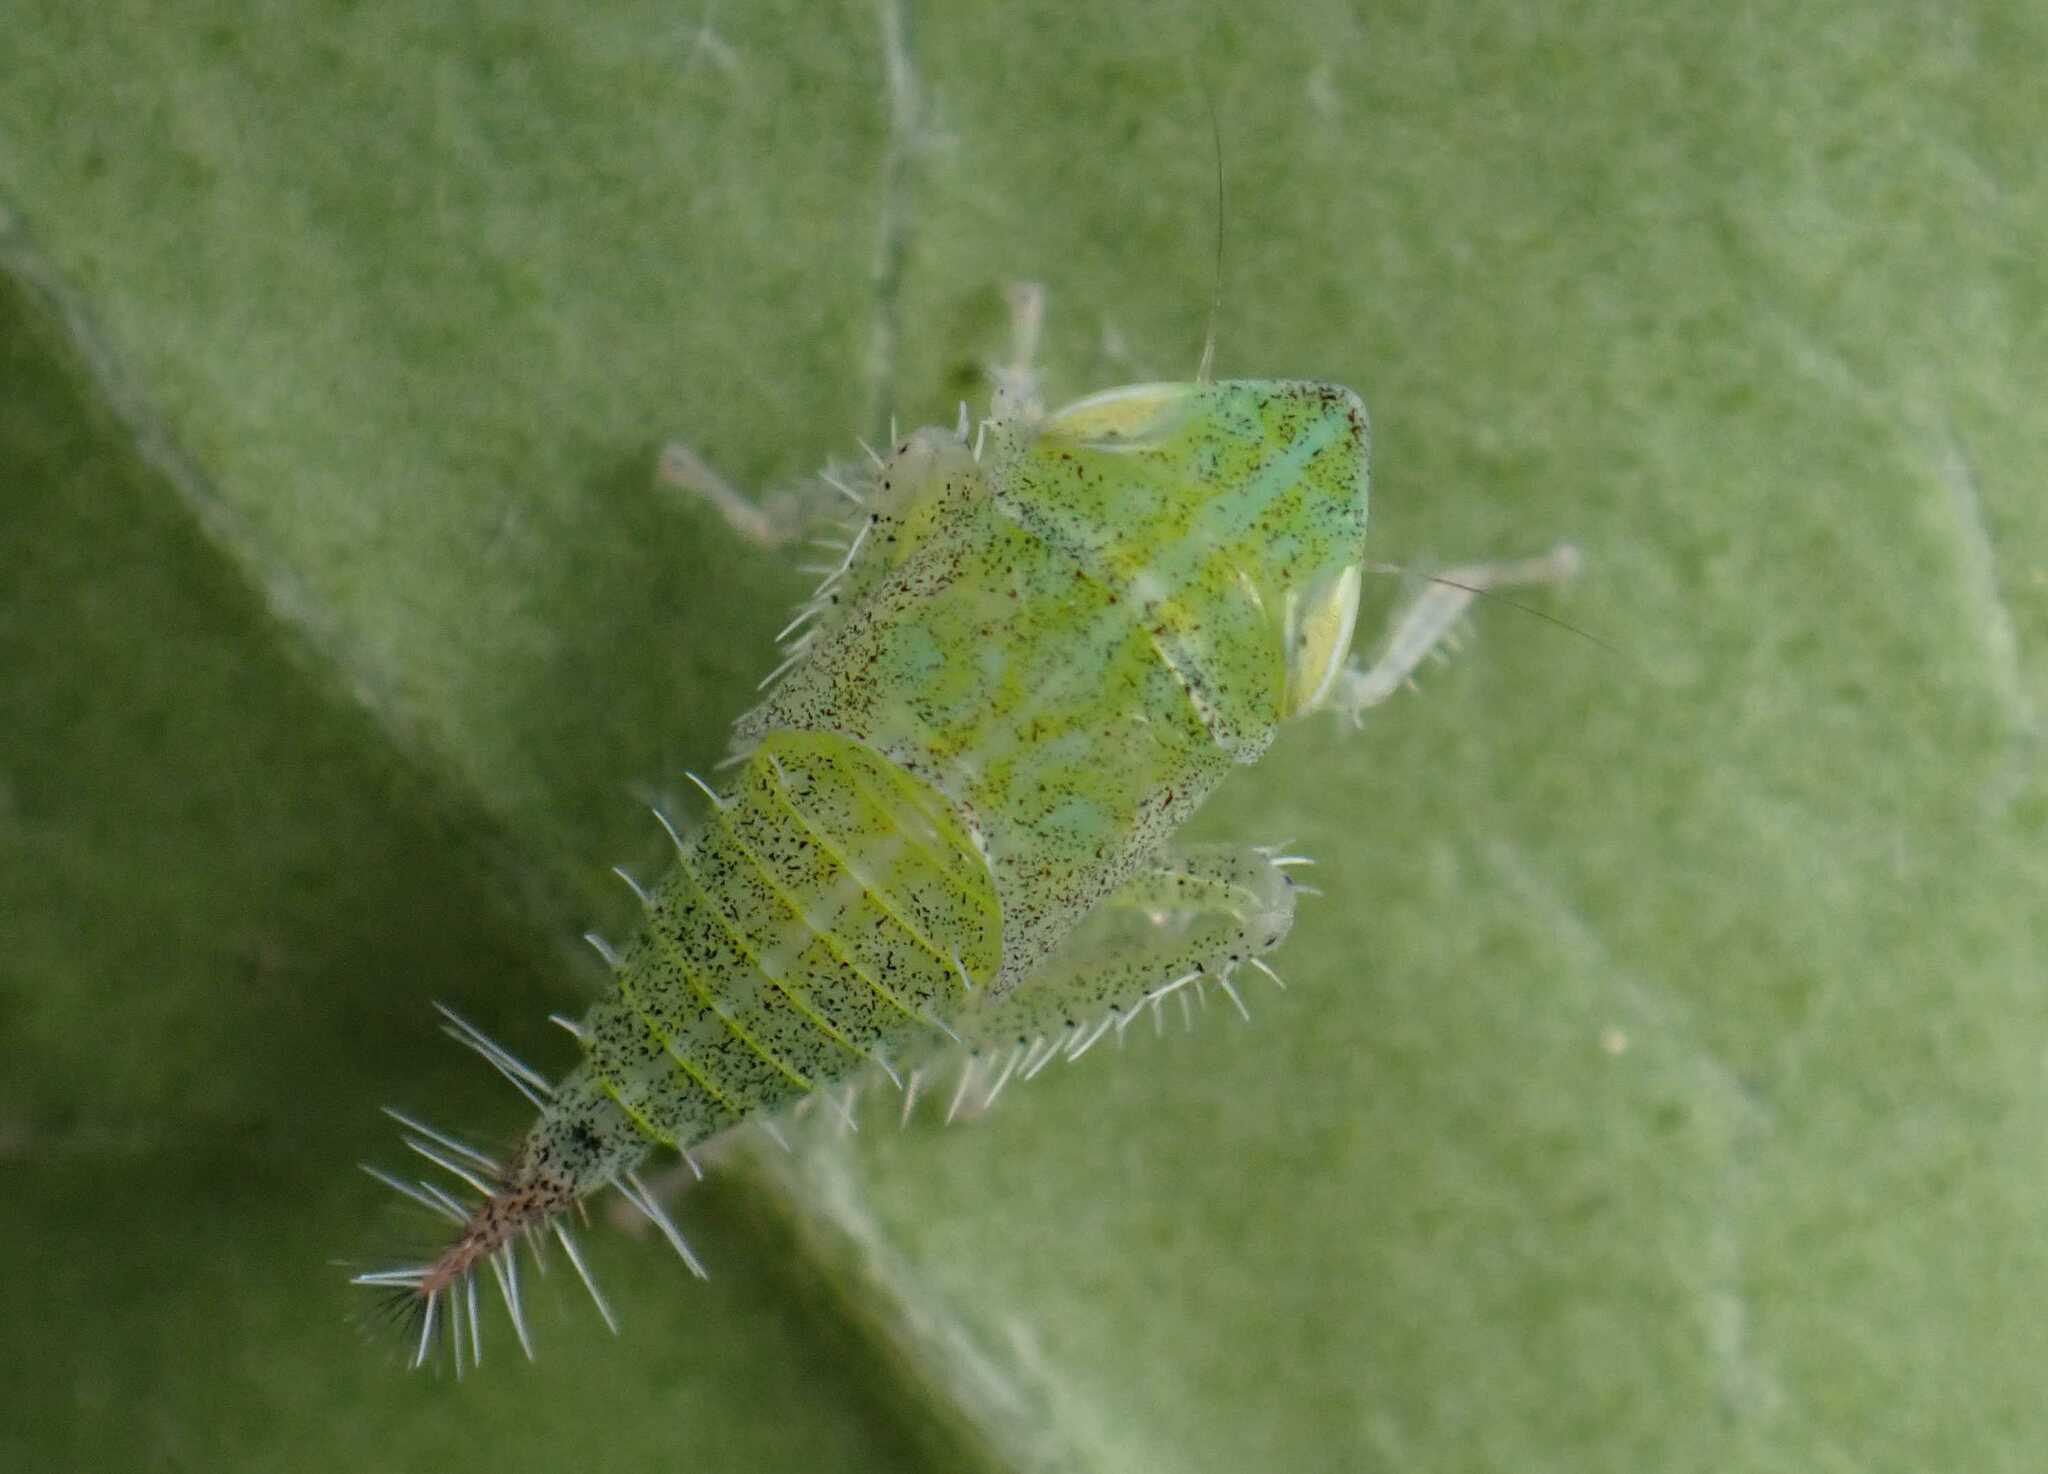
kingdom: Animalia
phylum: Arthropoda
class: Insecta
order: Hemiptera
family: Cicadellidae
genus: Fieberiella
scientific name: Fieberiella
